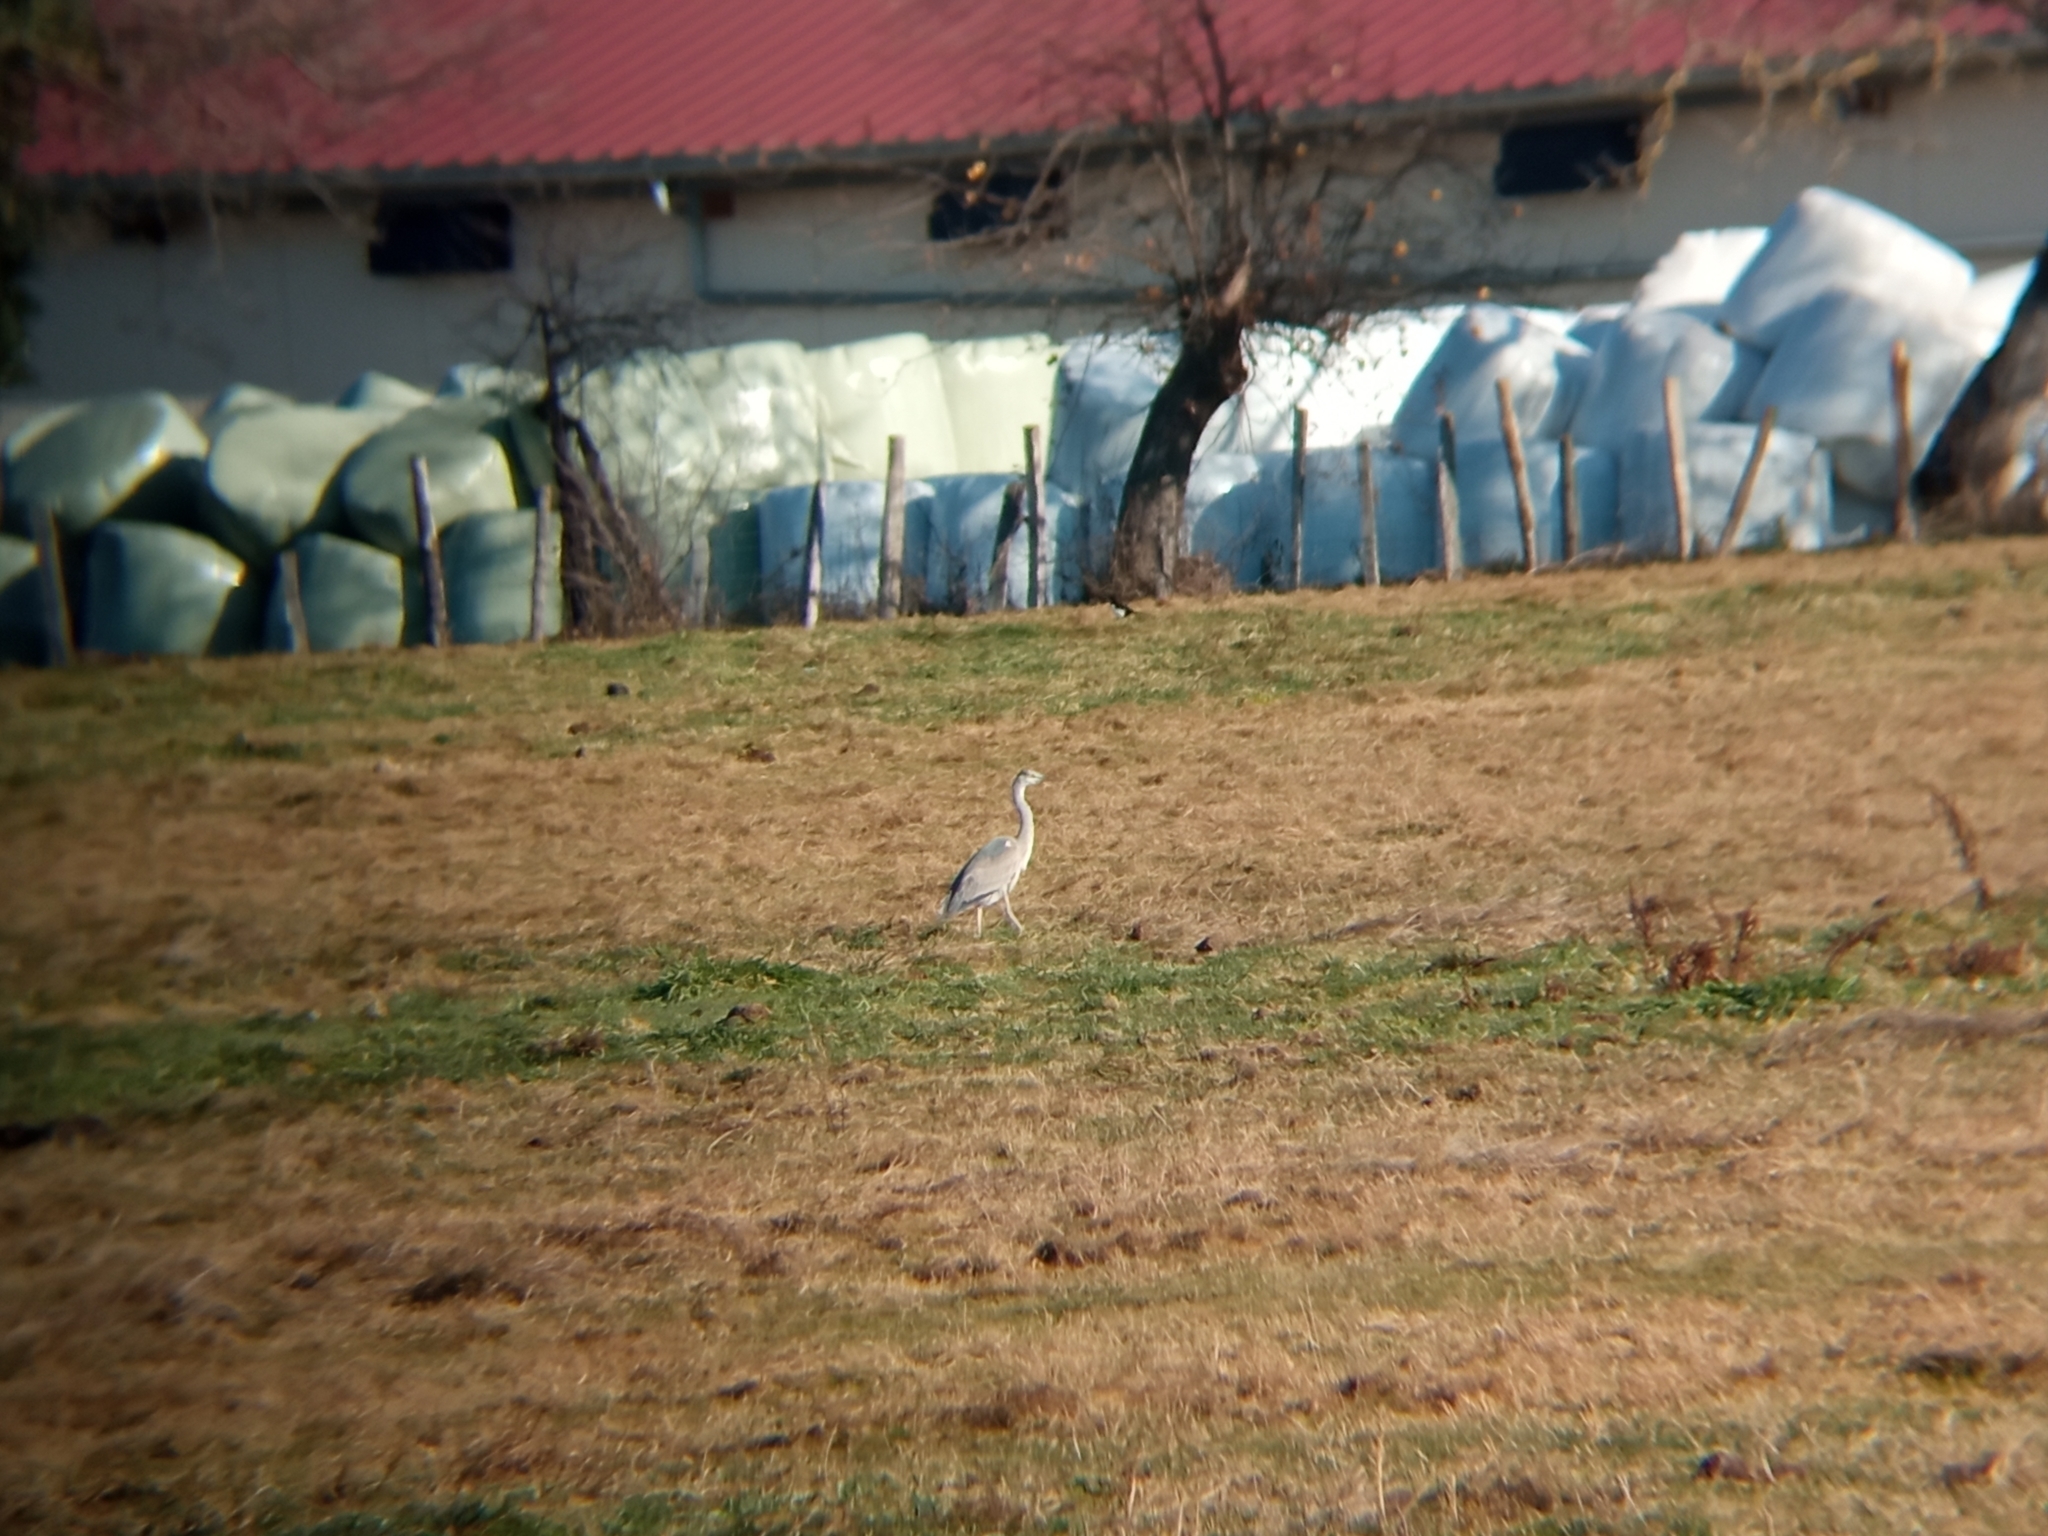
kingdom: Animalia
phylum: Chordata
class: Aves
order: Pelecaniformes
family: Ardeidae
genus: Ardea
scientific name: Ardea cinerea
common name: Grey heron
